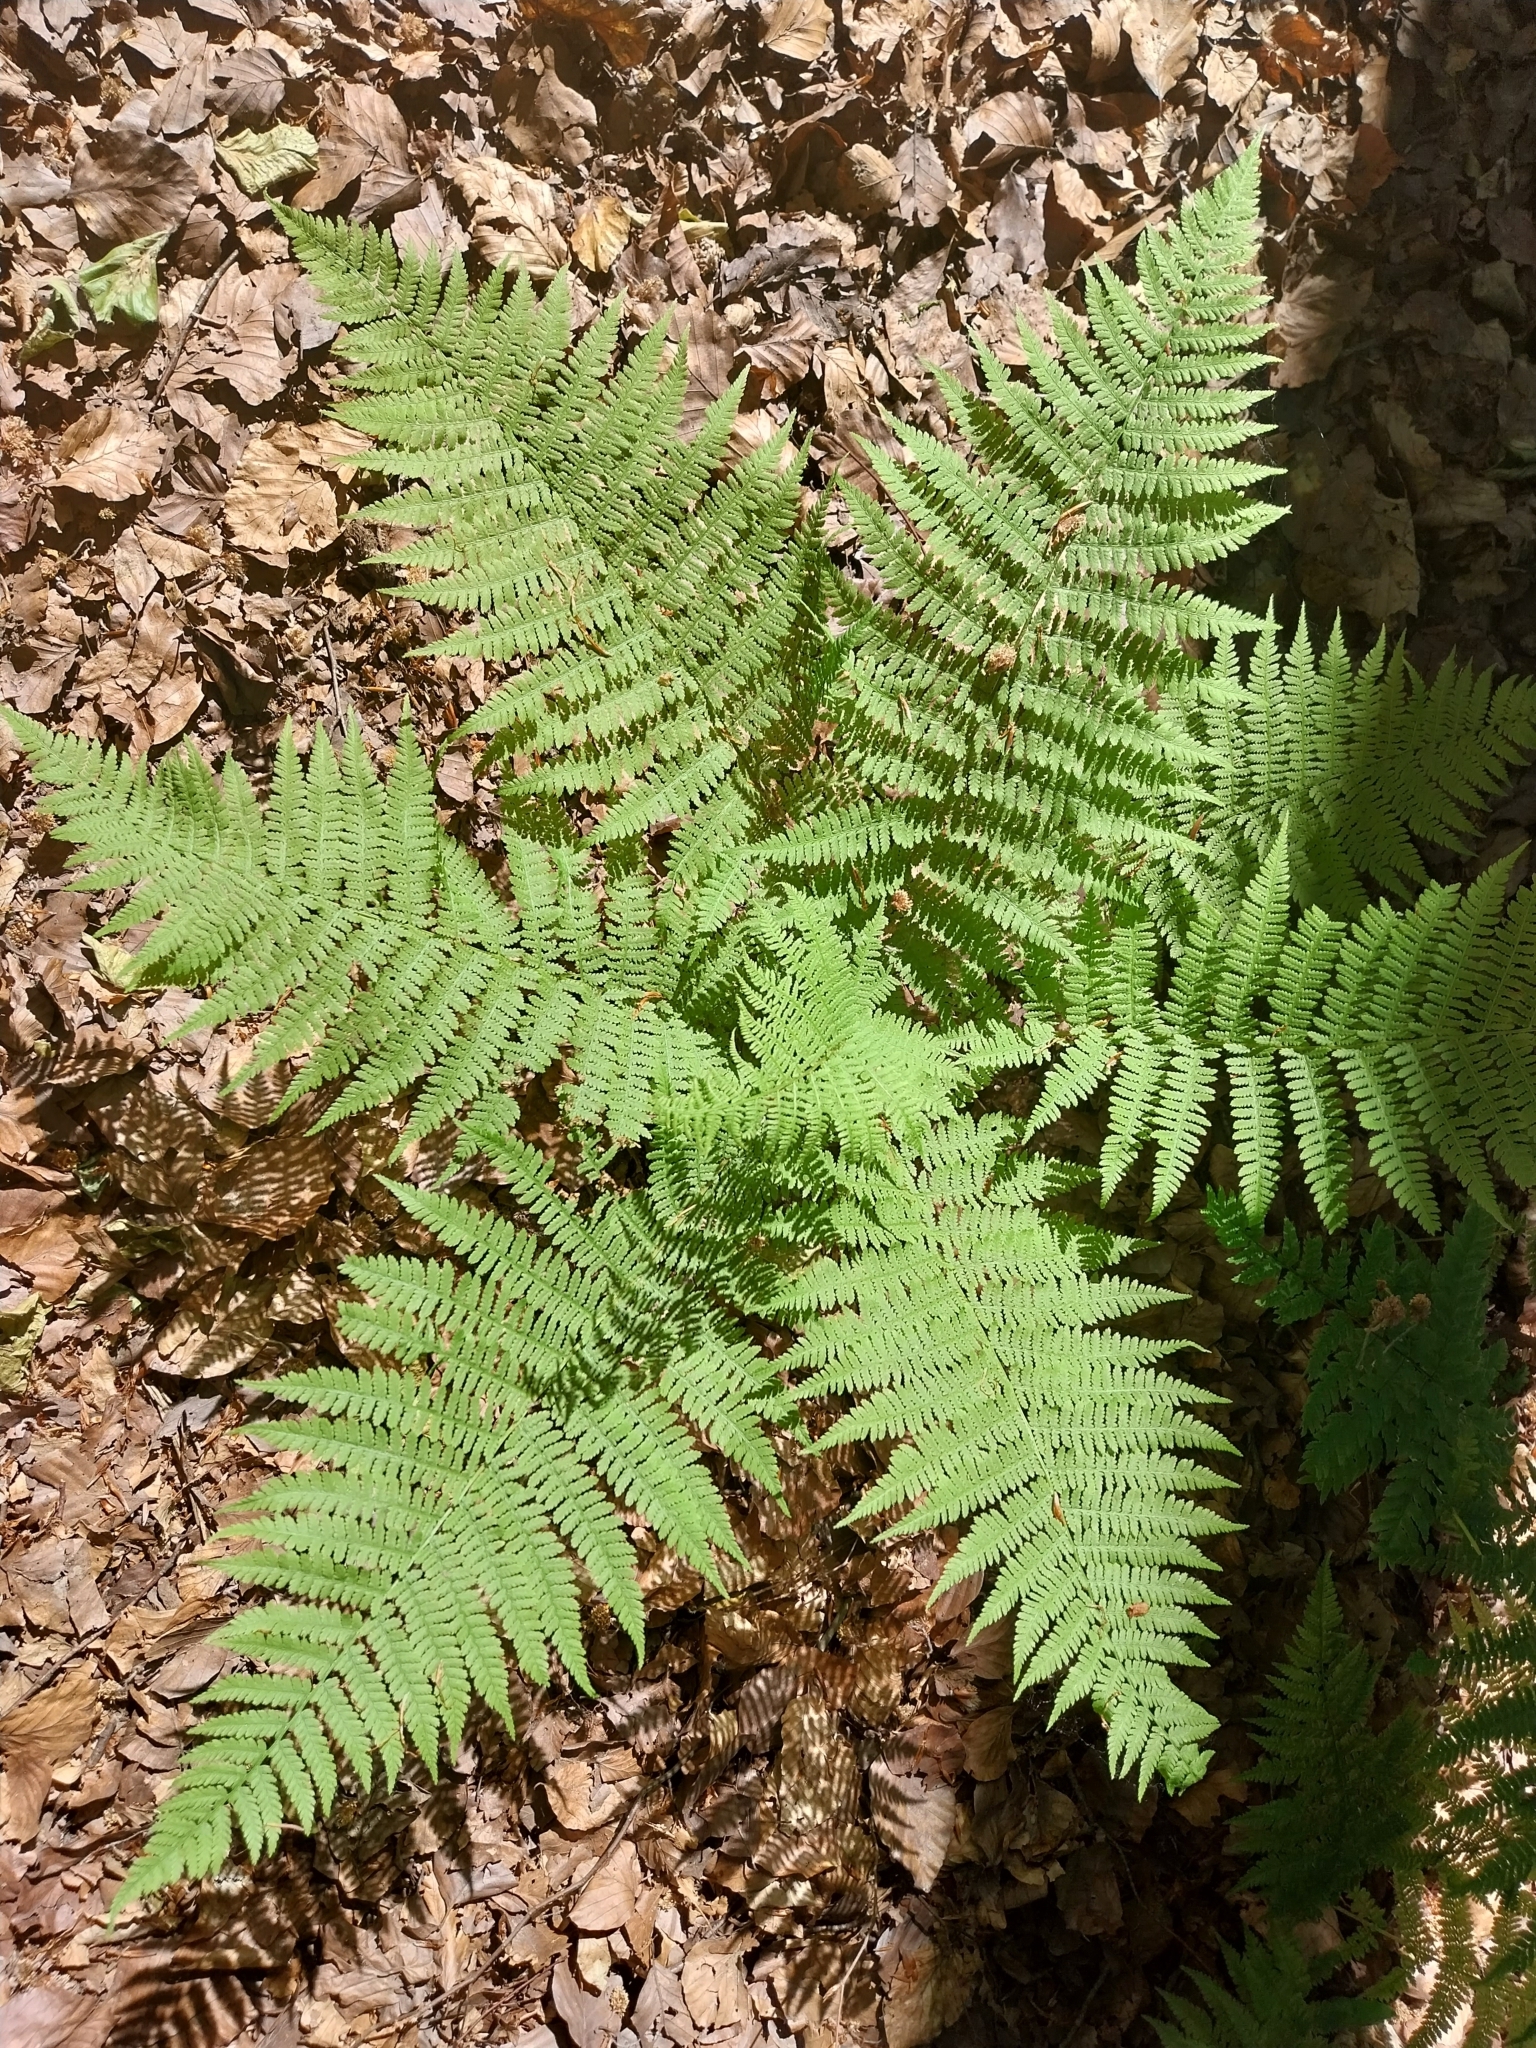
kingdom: Plantae
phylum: Tracheophyta
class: Polypodiopsida
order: Polypodiales
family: Athyriaceae
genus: Athyrium
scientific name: Athyrium filix-femina
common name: Lady fern
